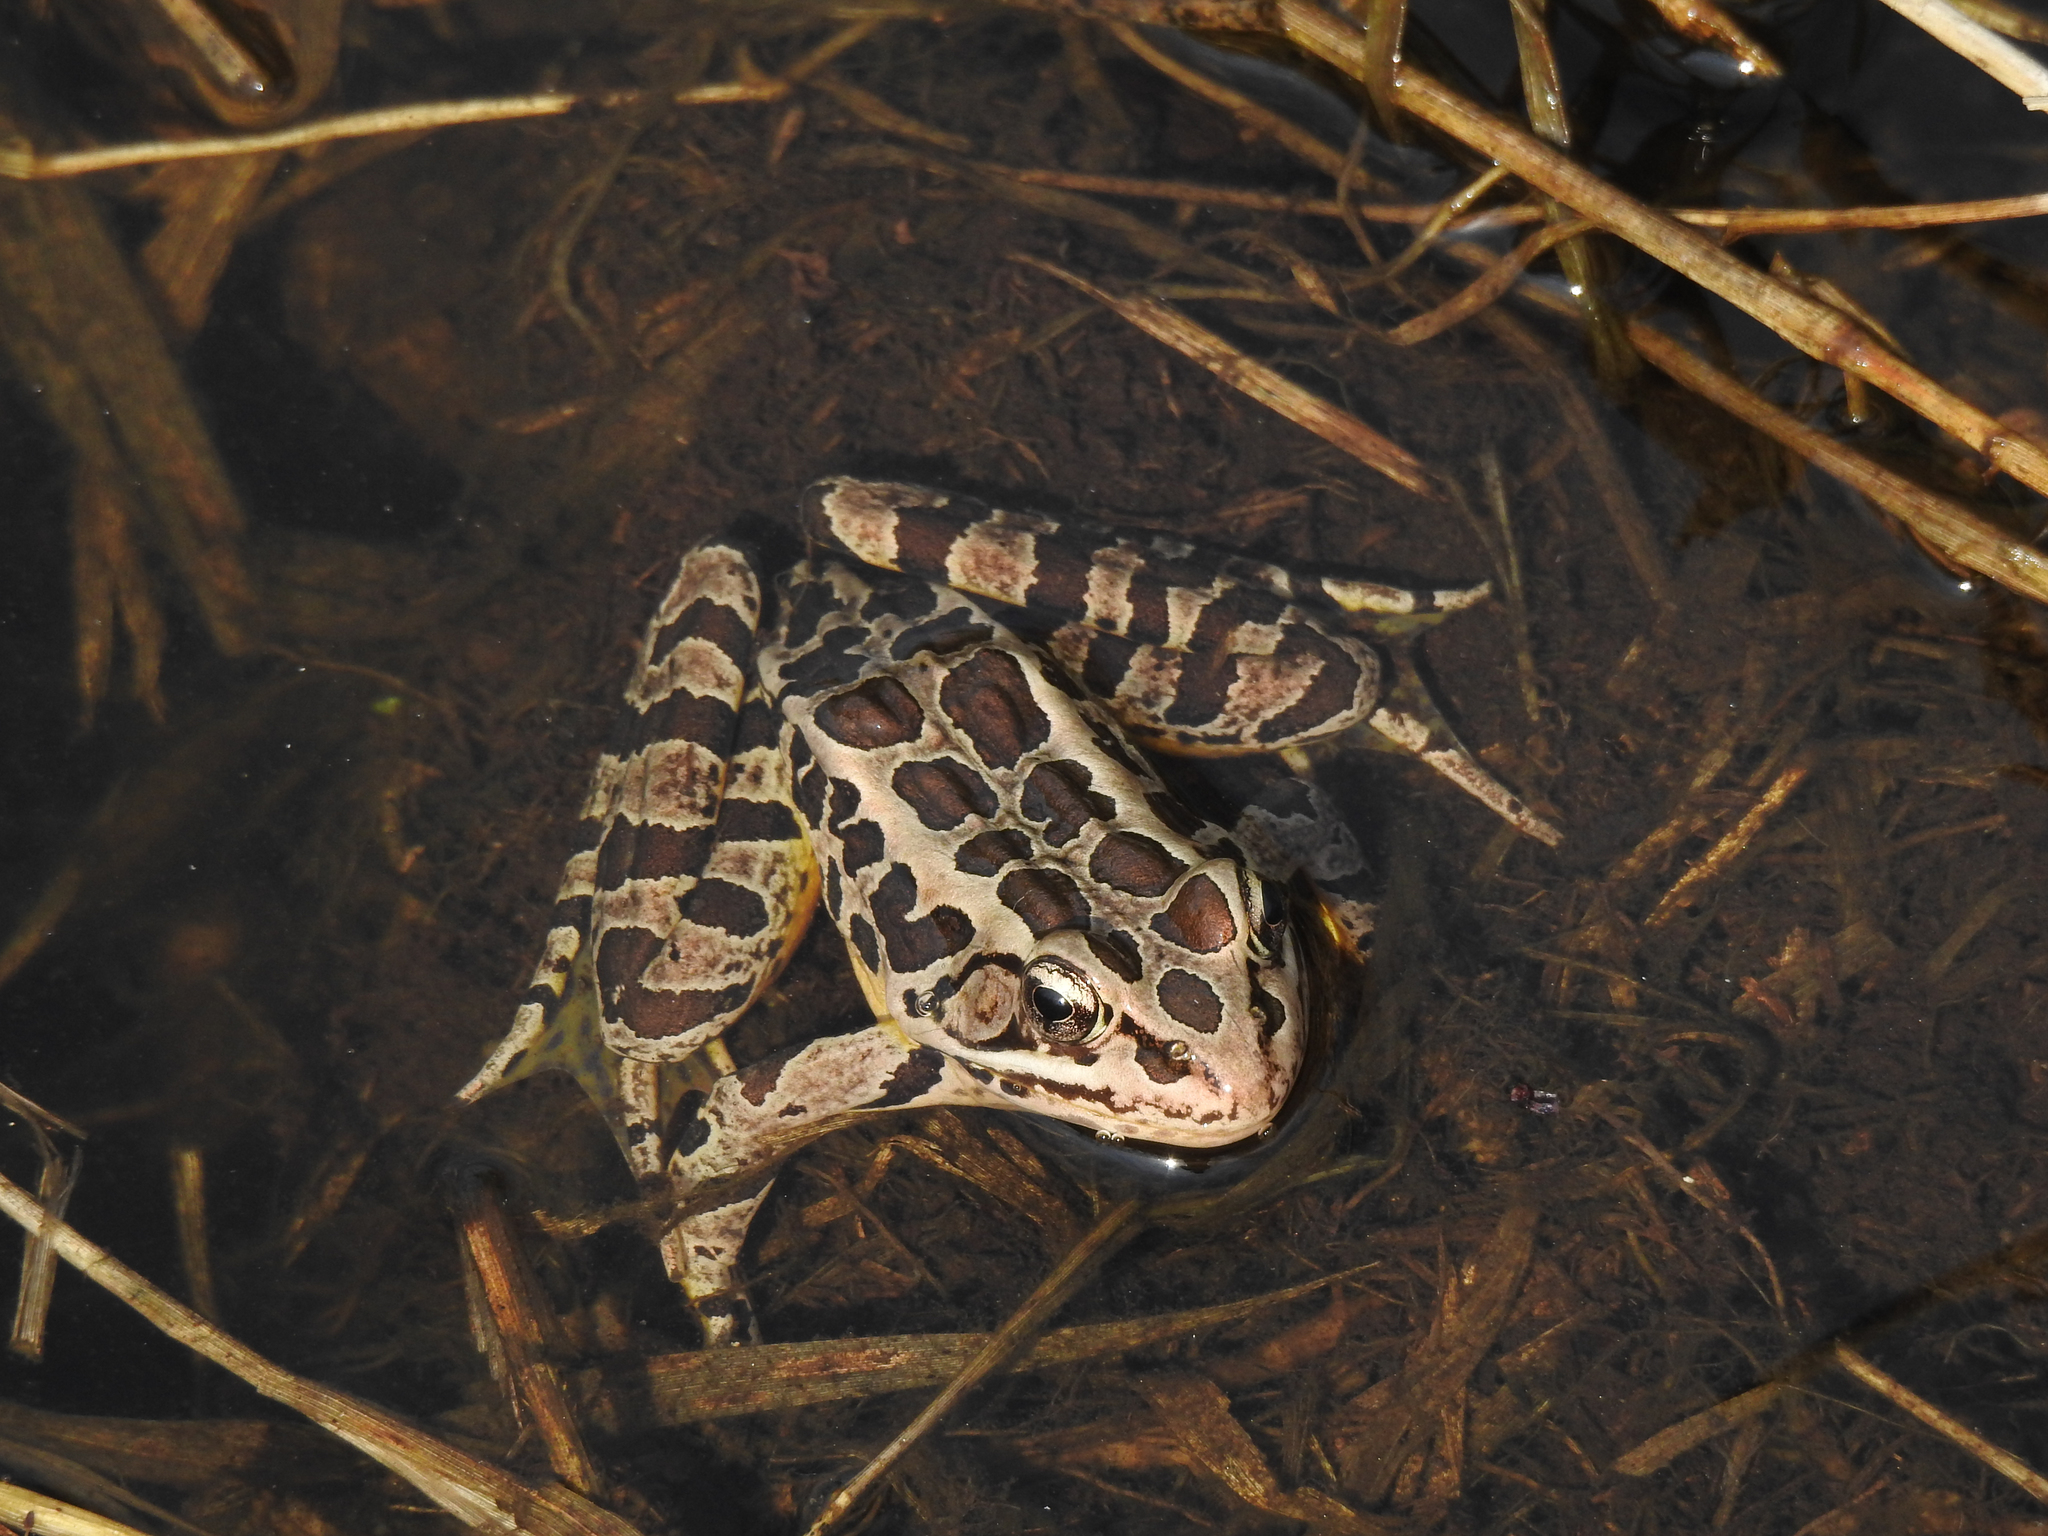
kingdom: Animalia
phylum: Chordata
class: Amphibia
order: Anura
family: Ranidae
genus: Lithobates
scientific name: Lithobates palustris
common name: Pickerel frog
